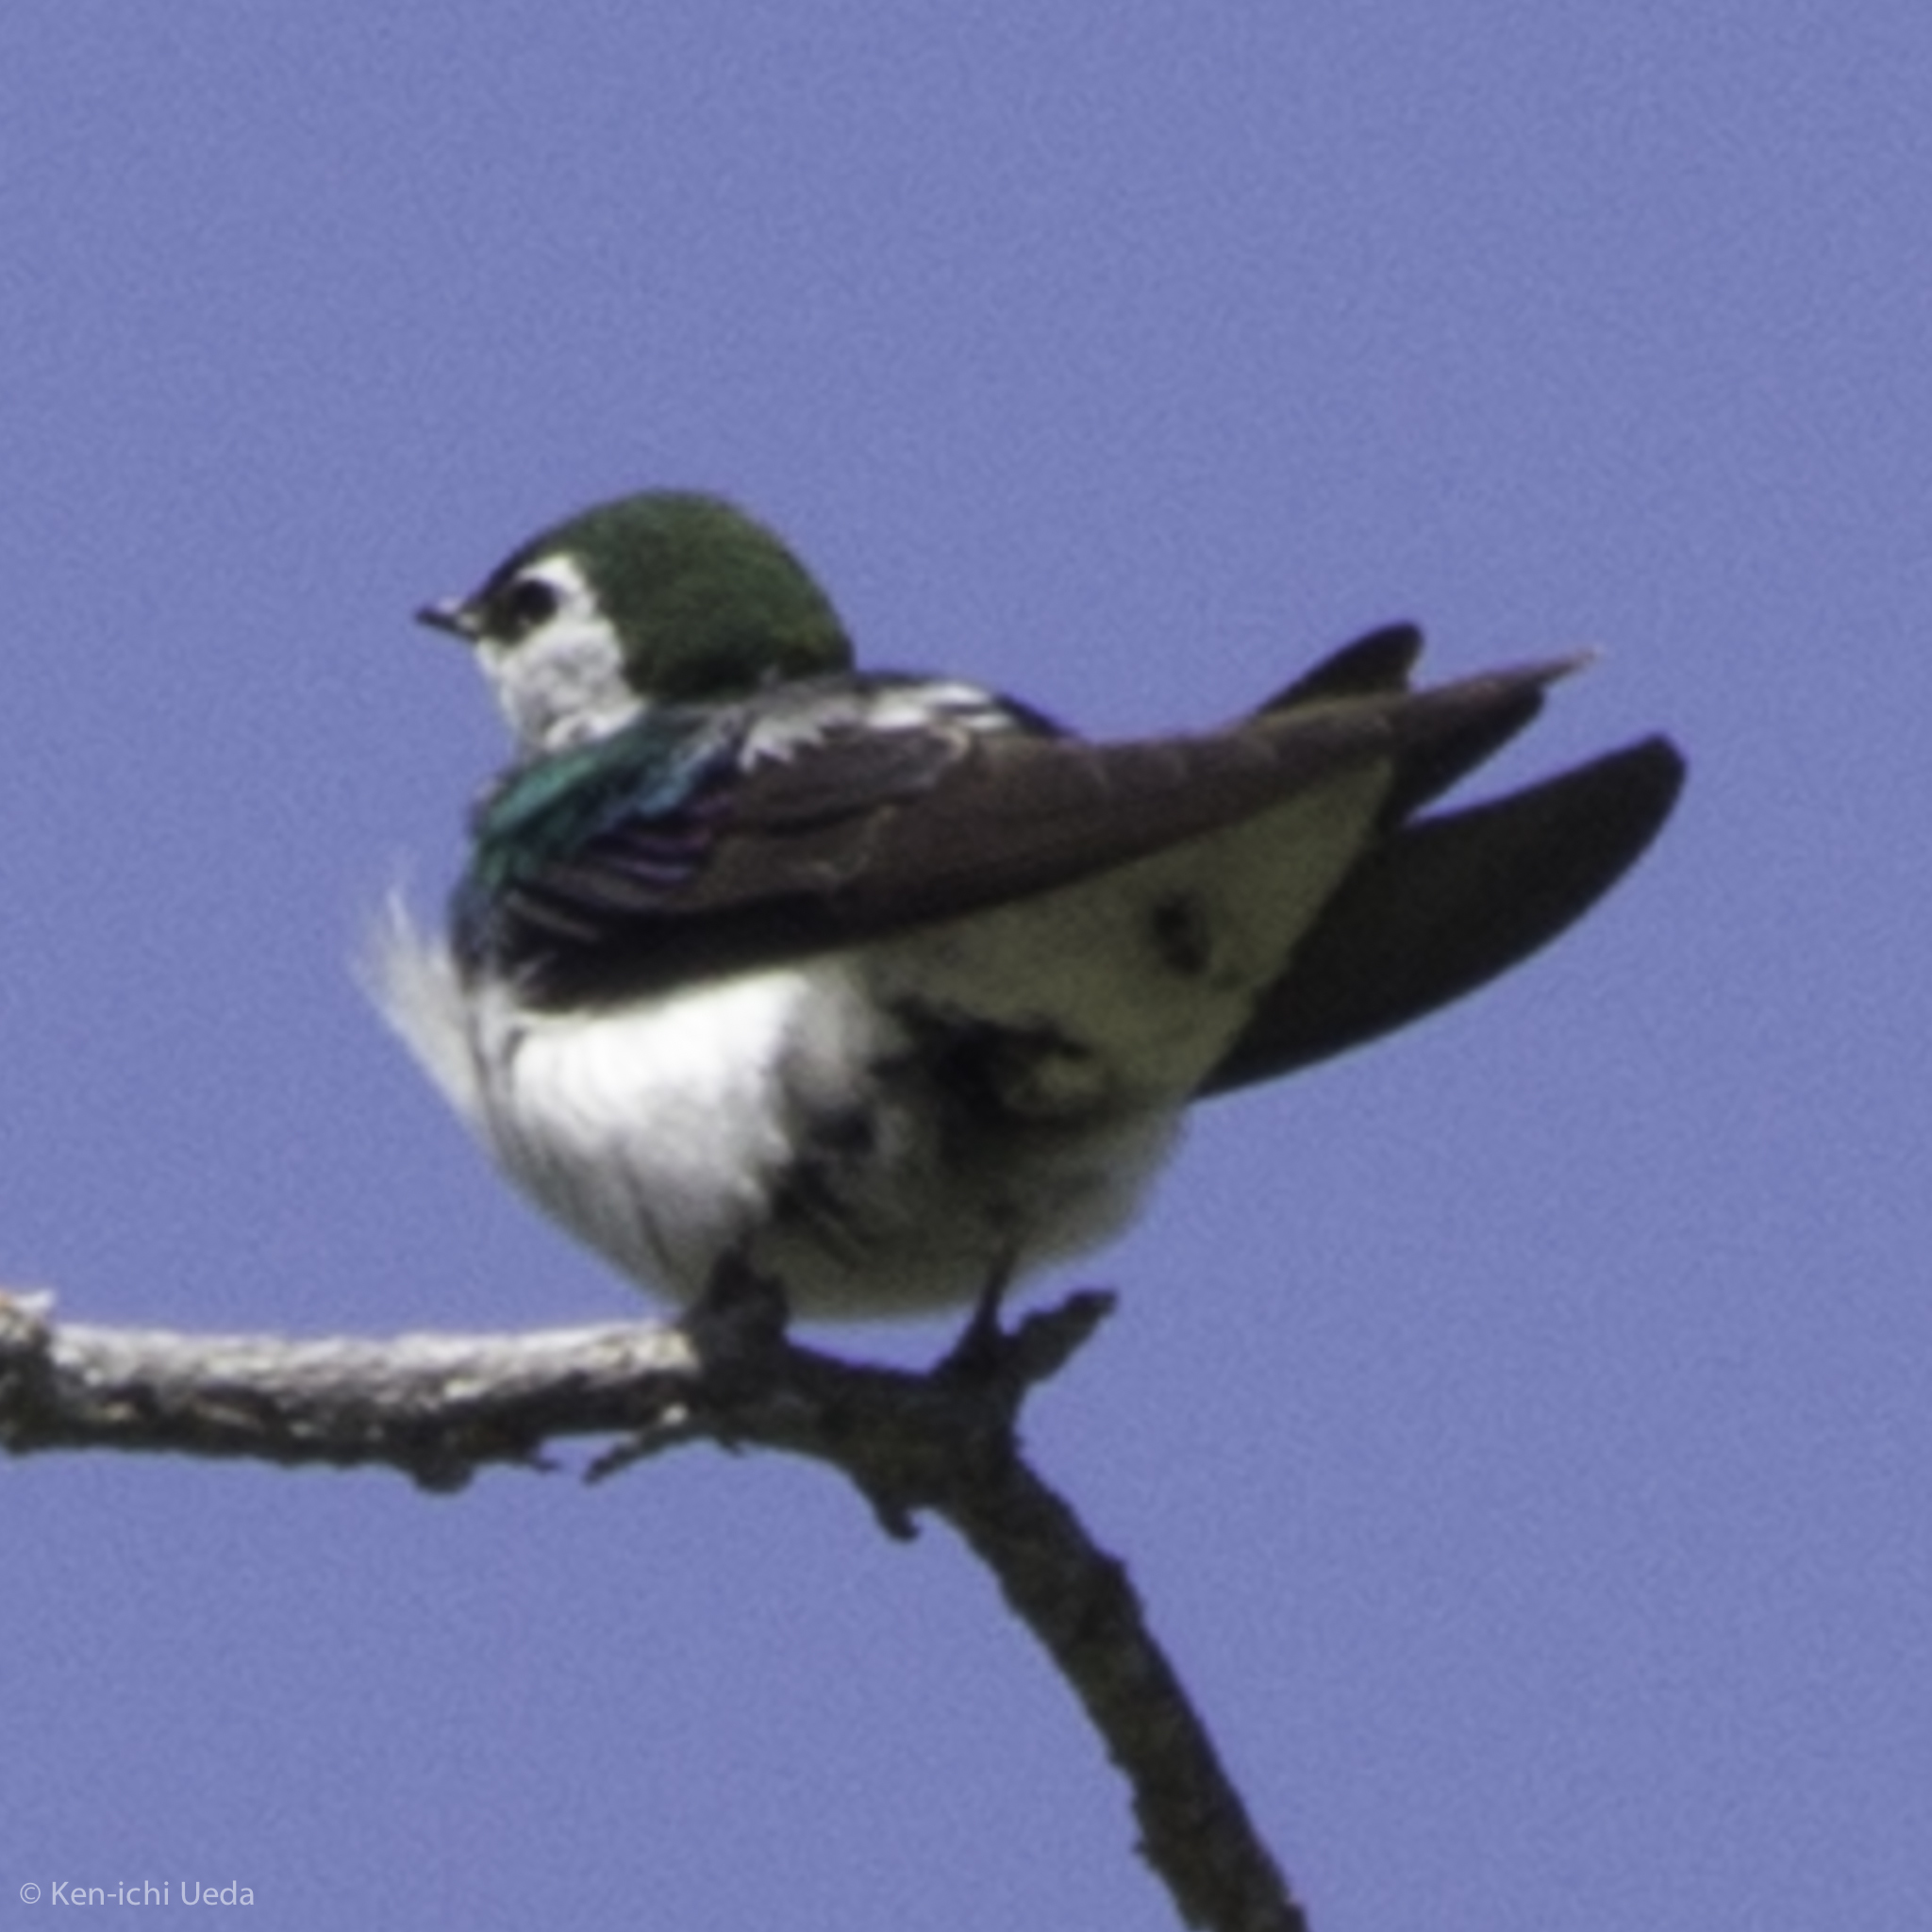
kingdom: Animalia
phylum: Chordata
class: Aves
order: Passeriformes
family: Hirundinidae
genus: Tachycineta
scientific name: Tachycineta thalassina
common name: Violet-green swallow
